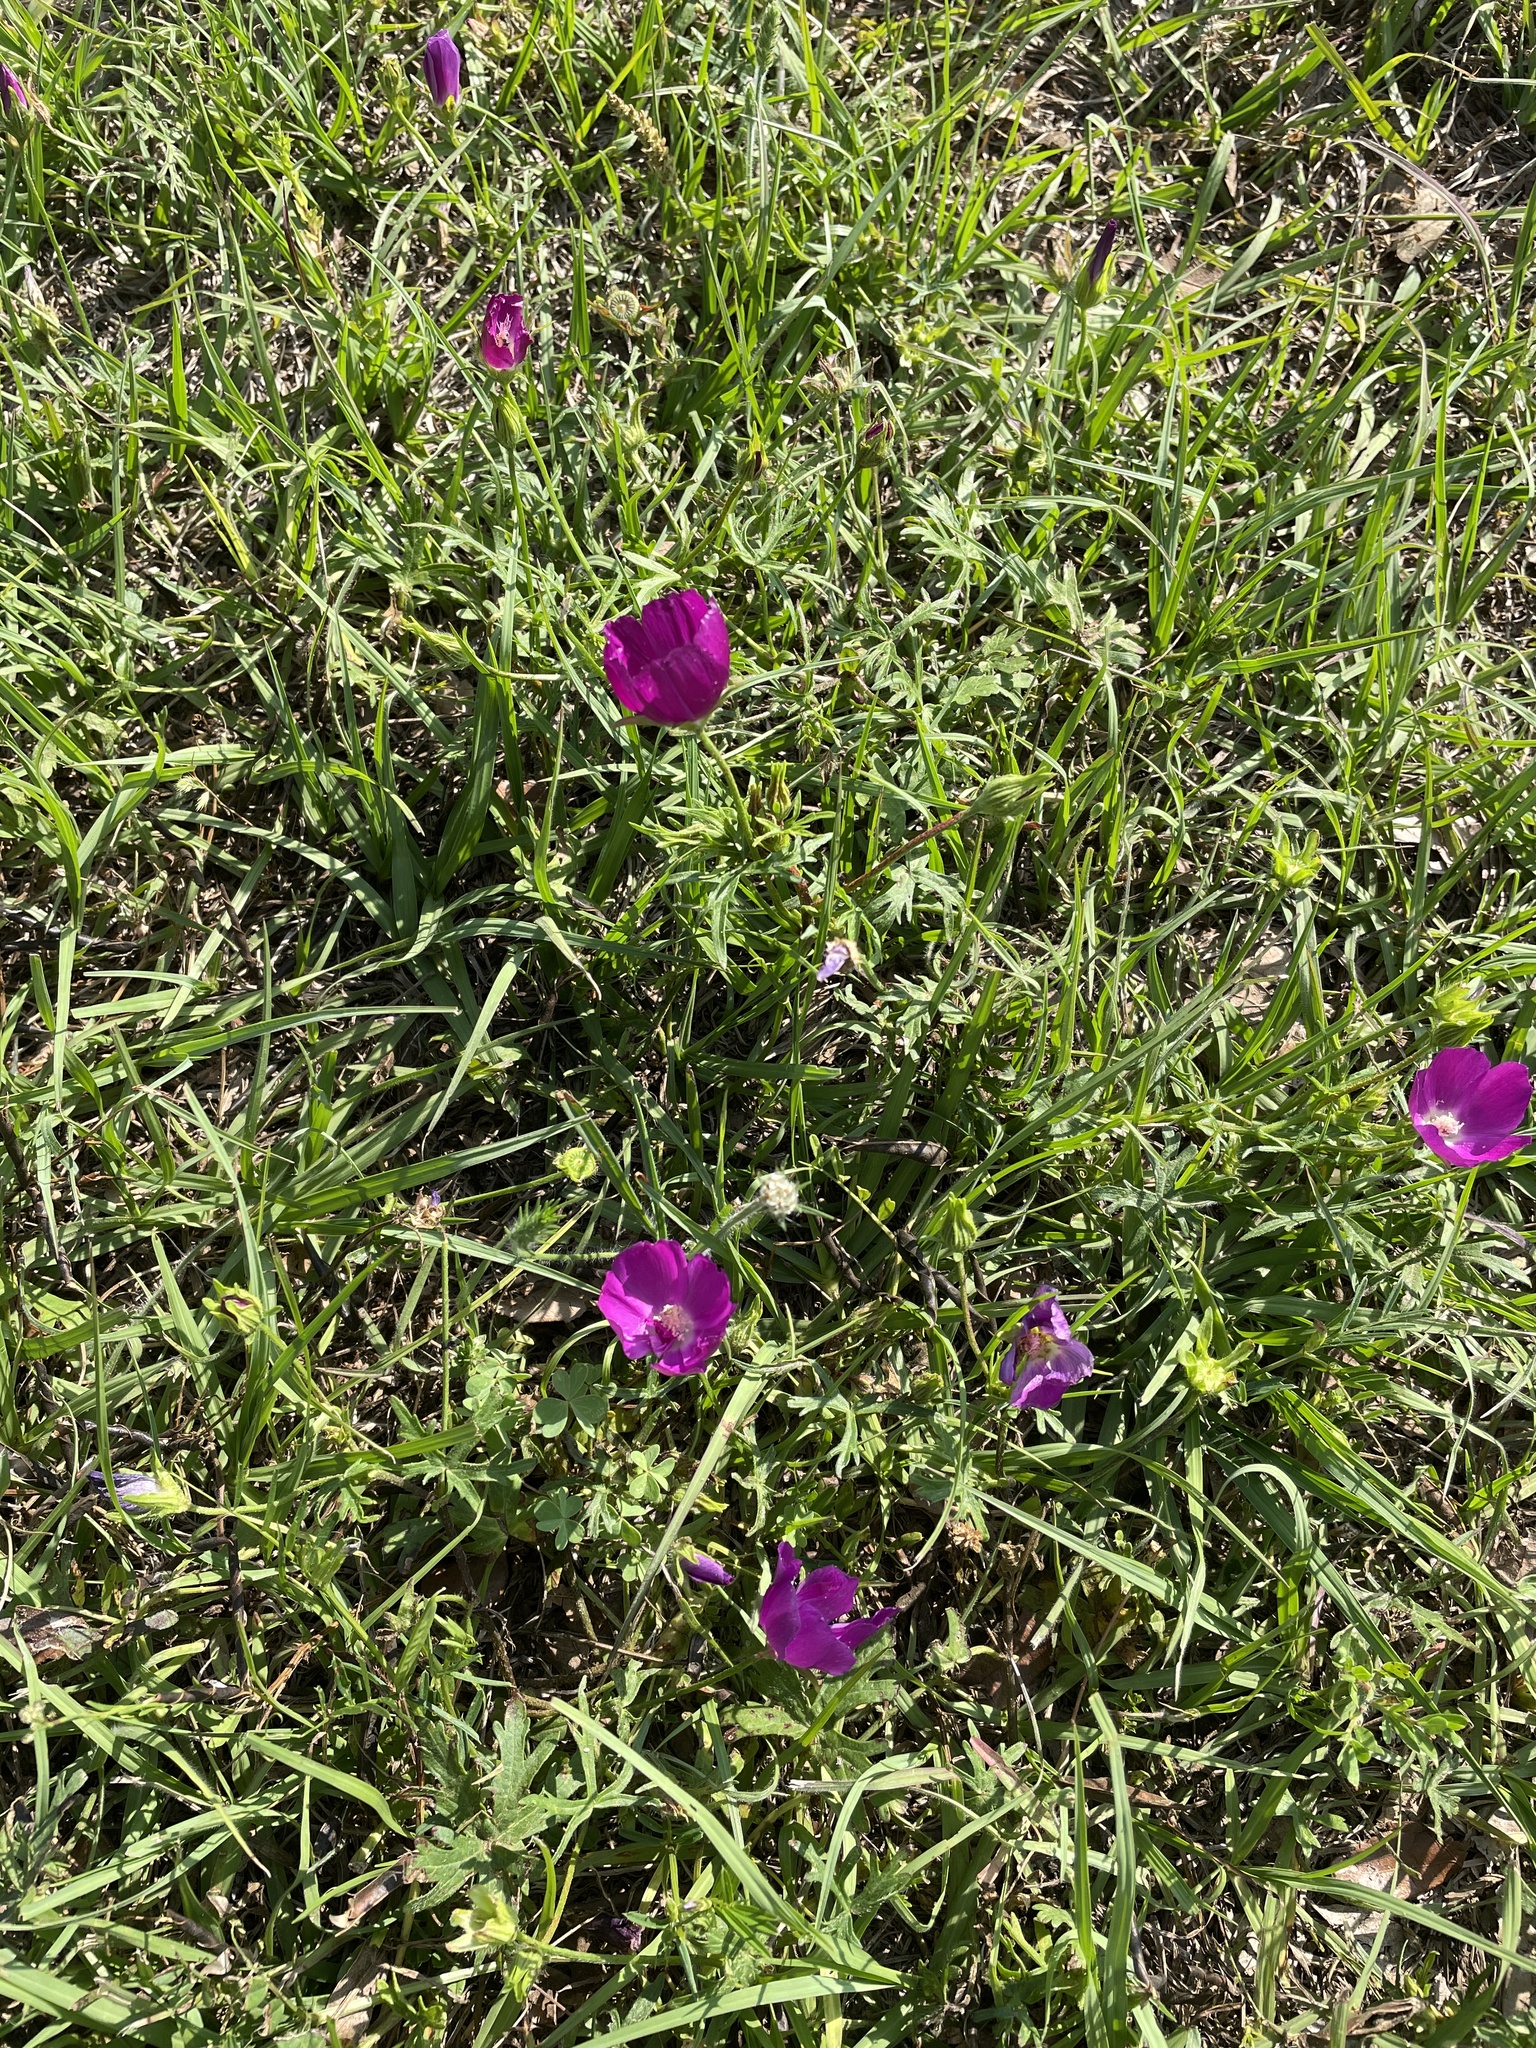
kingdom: Plantae
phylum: Tracheophyta
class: Magnoliopsida
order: Malvales
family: Malvaceae
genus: Callirhoe
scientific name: Callirhoe involucrata
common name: Purple poppy-mallow
